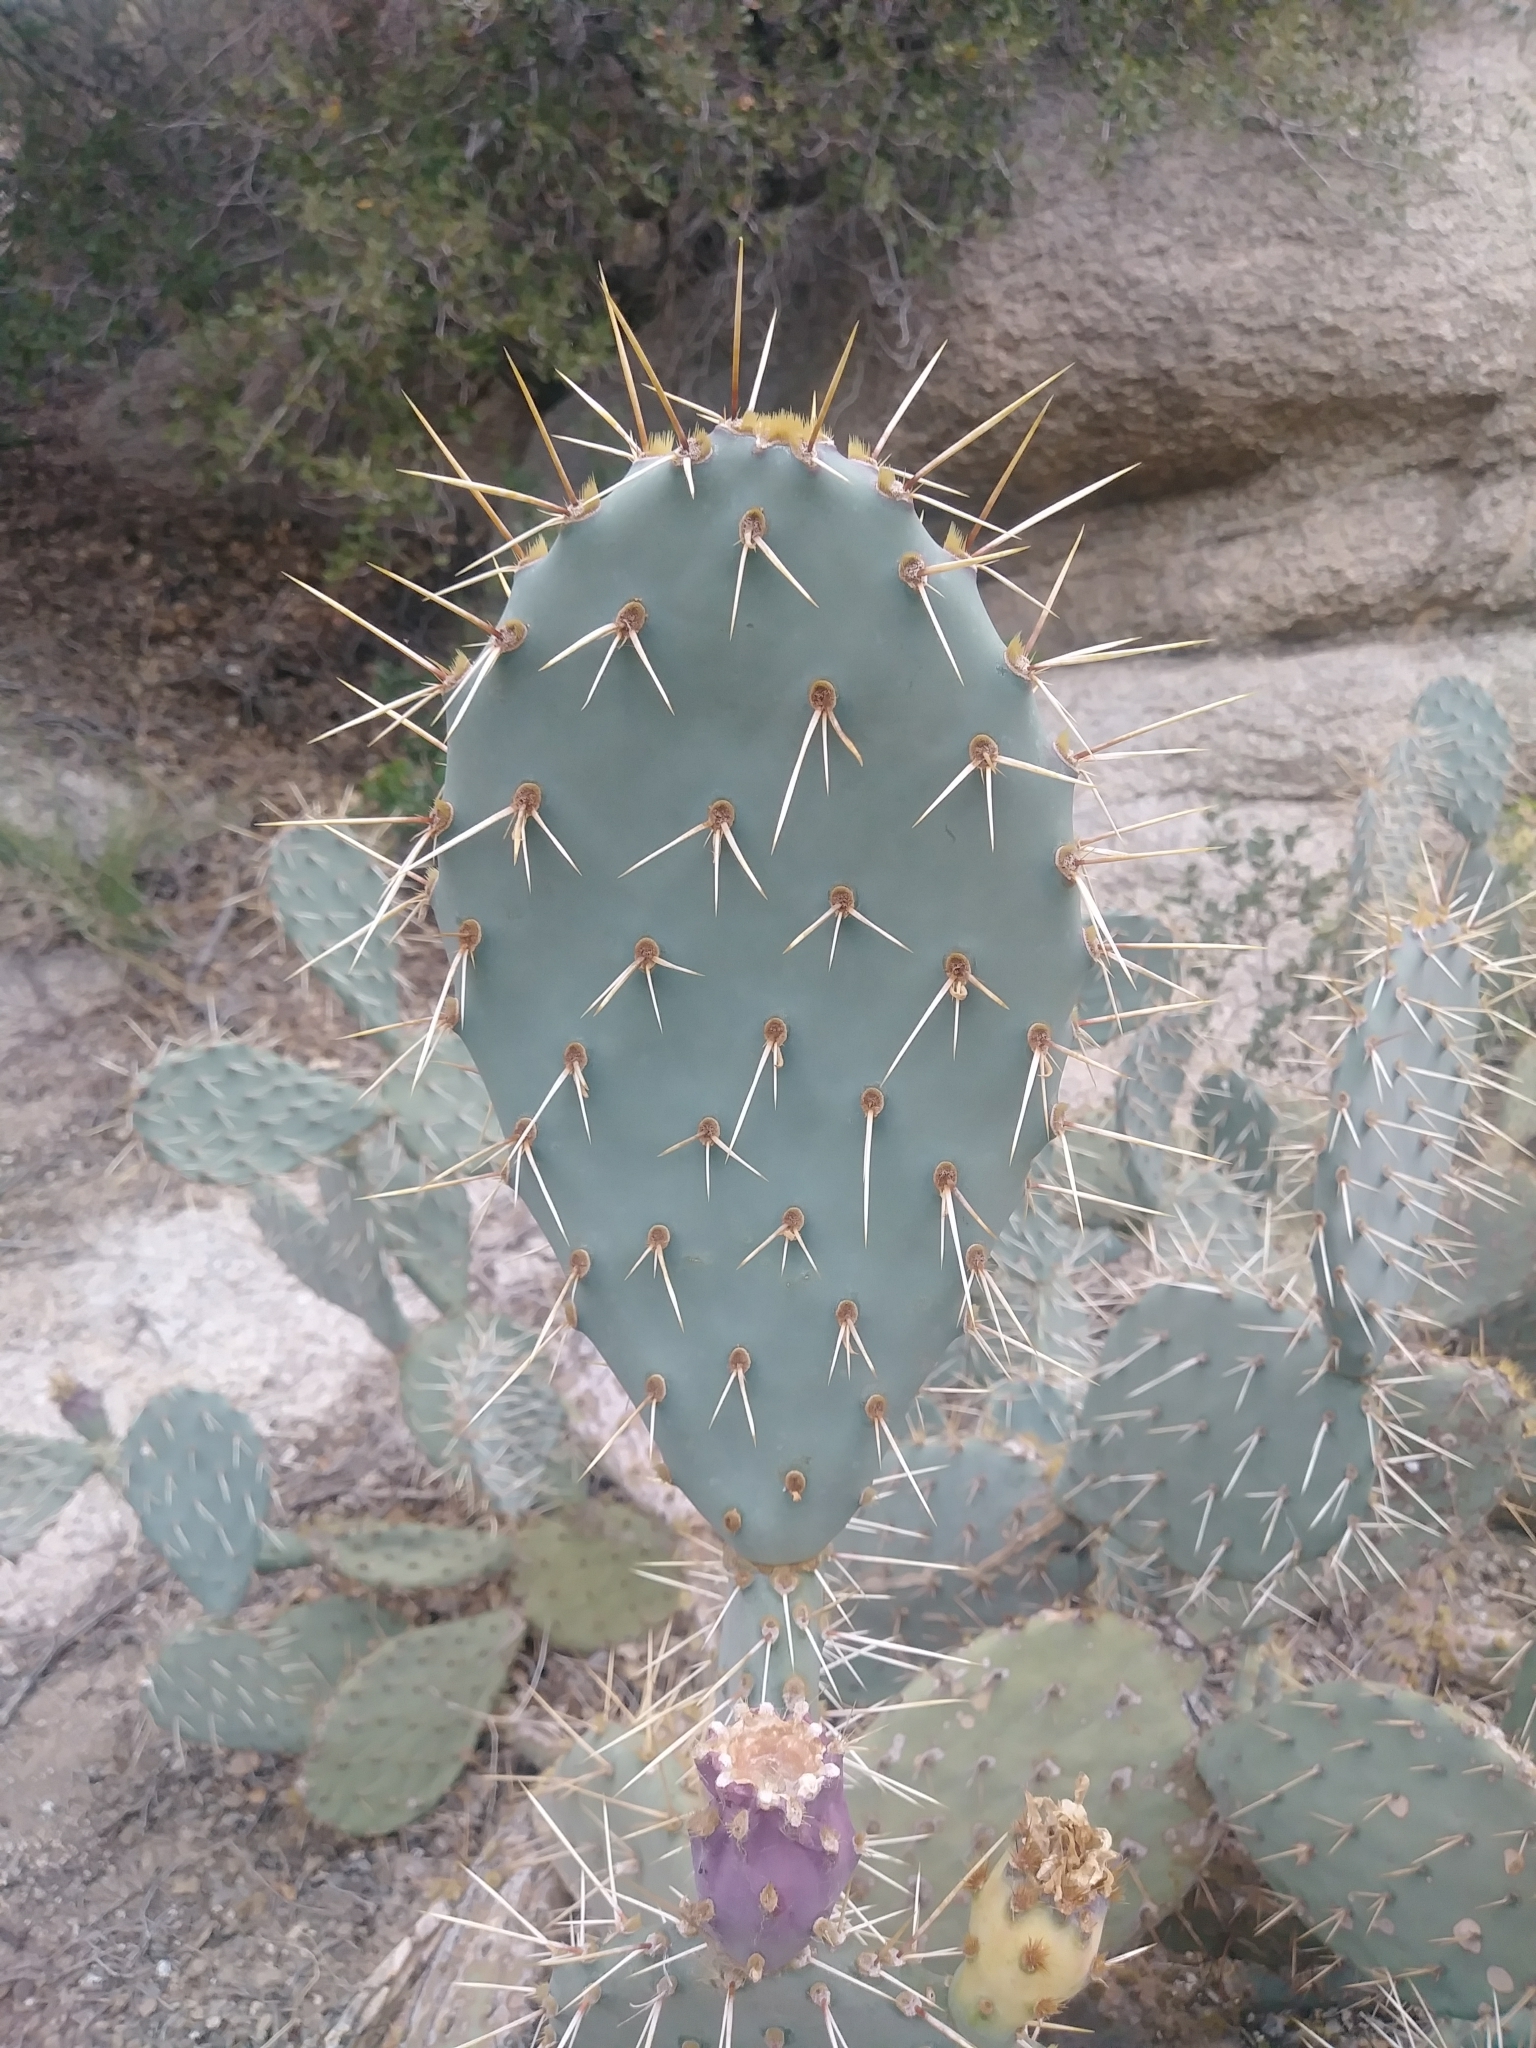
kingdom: Plantae
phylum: Tracheophyta
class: Magnoliopsida
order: Caryophyllales
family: Cactaceae
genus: Opuntia
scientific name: Opuntia phaeacantha
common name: New mexico prickly-pear
